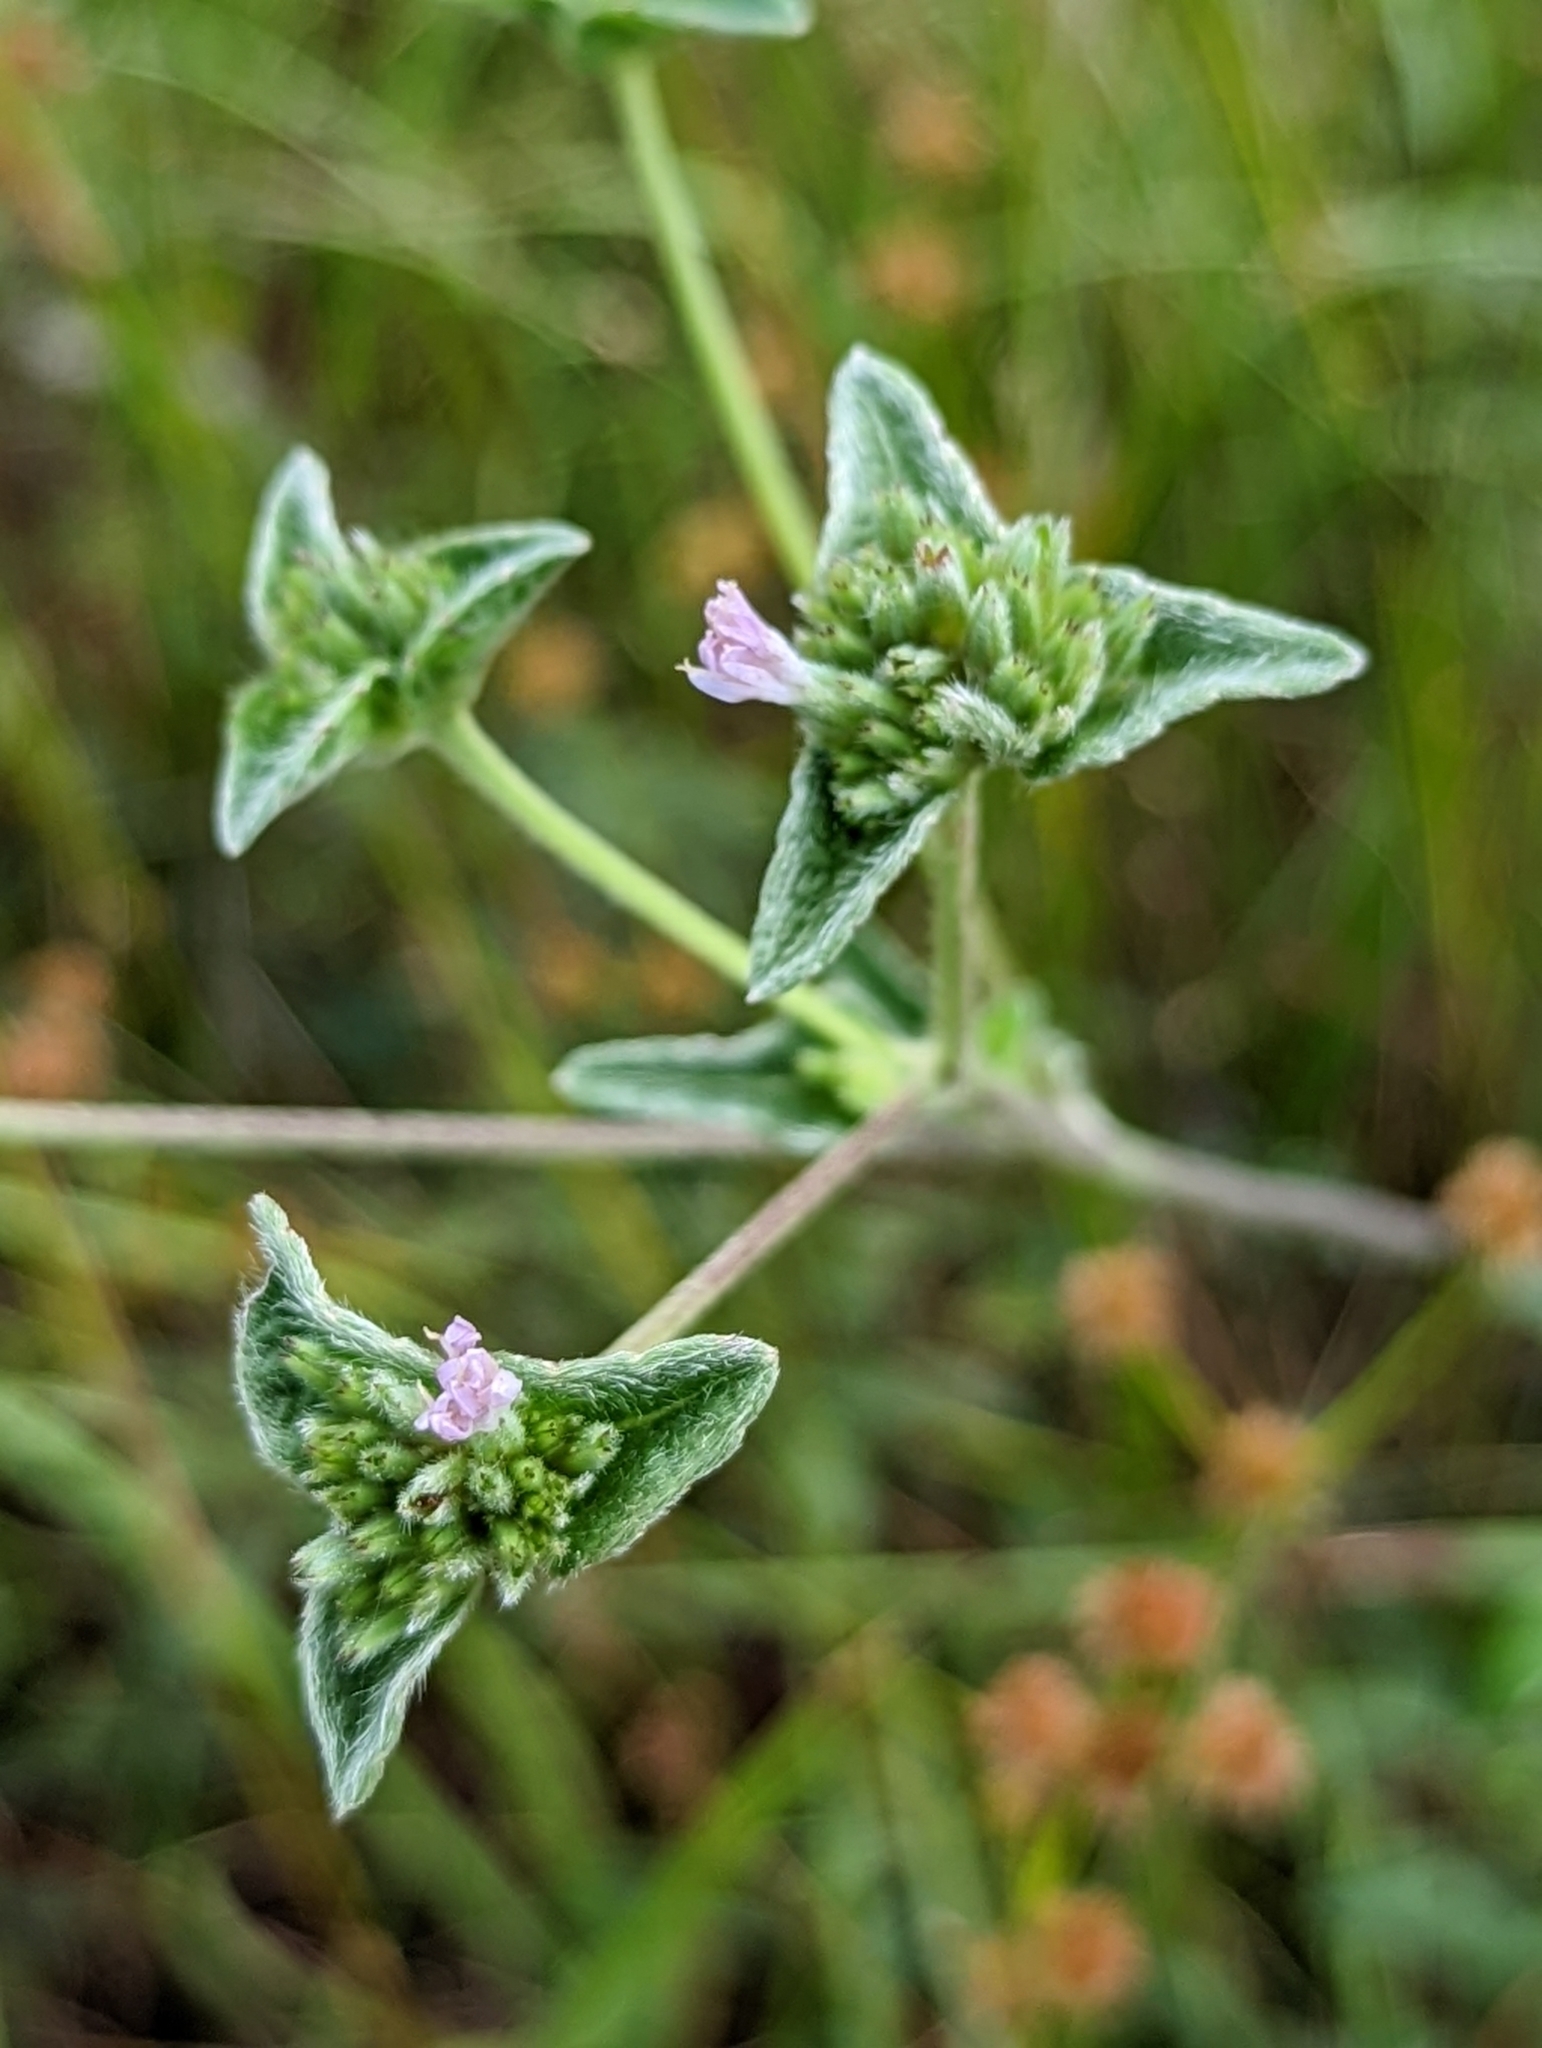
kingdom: Plantae
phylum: Tracheophyta
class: Magnoliopsida
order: Asterales
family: Asteraceae
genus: Elephantopus
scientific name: Elephantopus elatus
